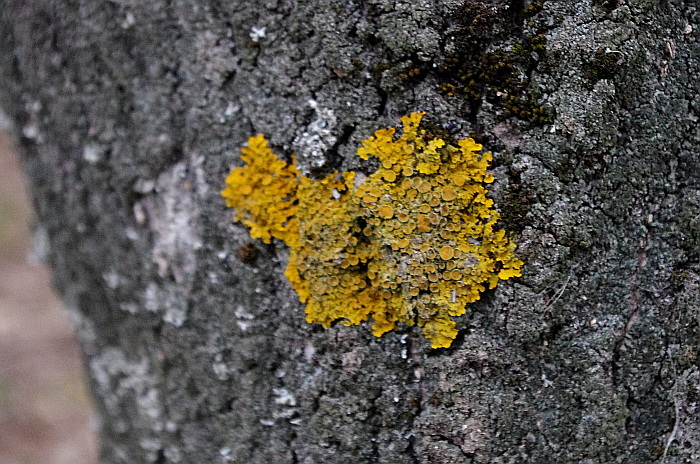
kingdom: Fungi
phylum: Ascomycota
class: Lecanoromycetes
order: Teloschistales
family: Teloschistaceae
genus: Xanthoria
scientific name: Xanthoria parietina
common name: Common orange lichen
